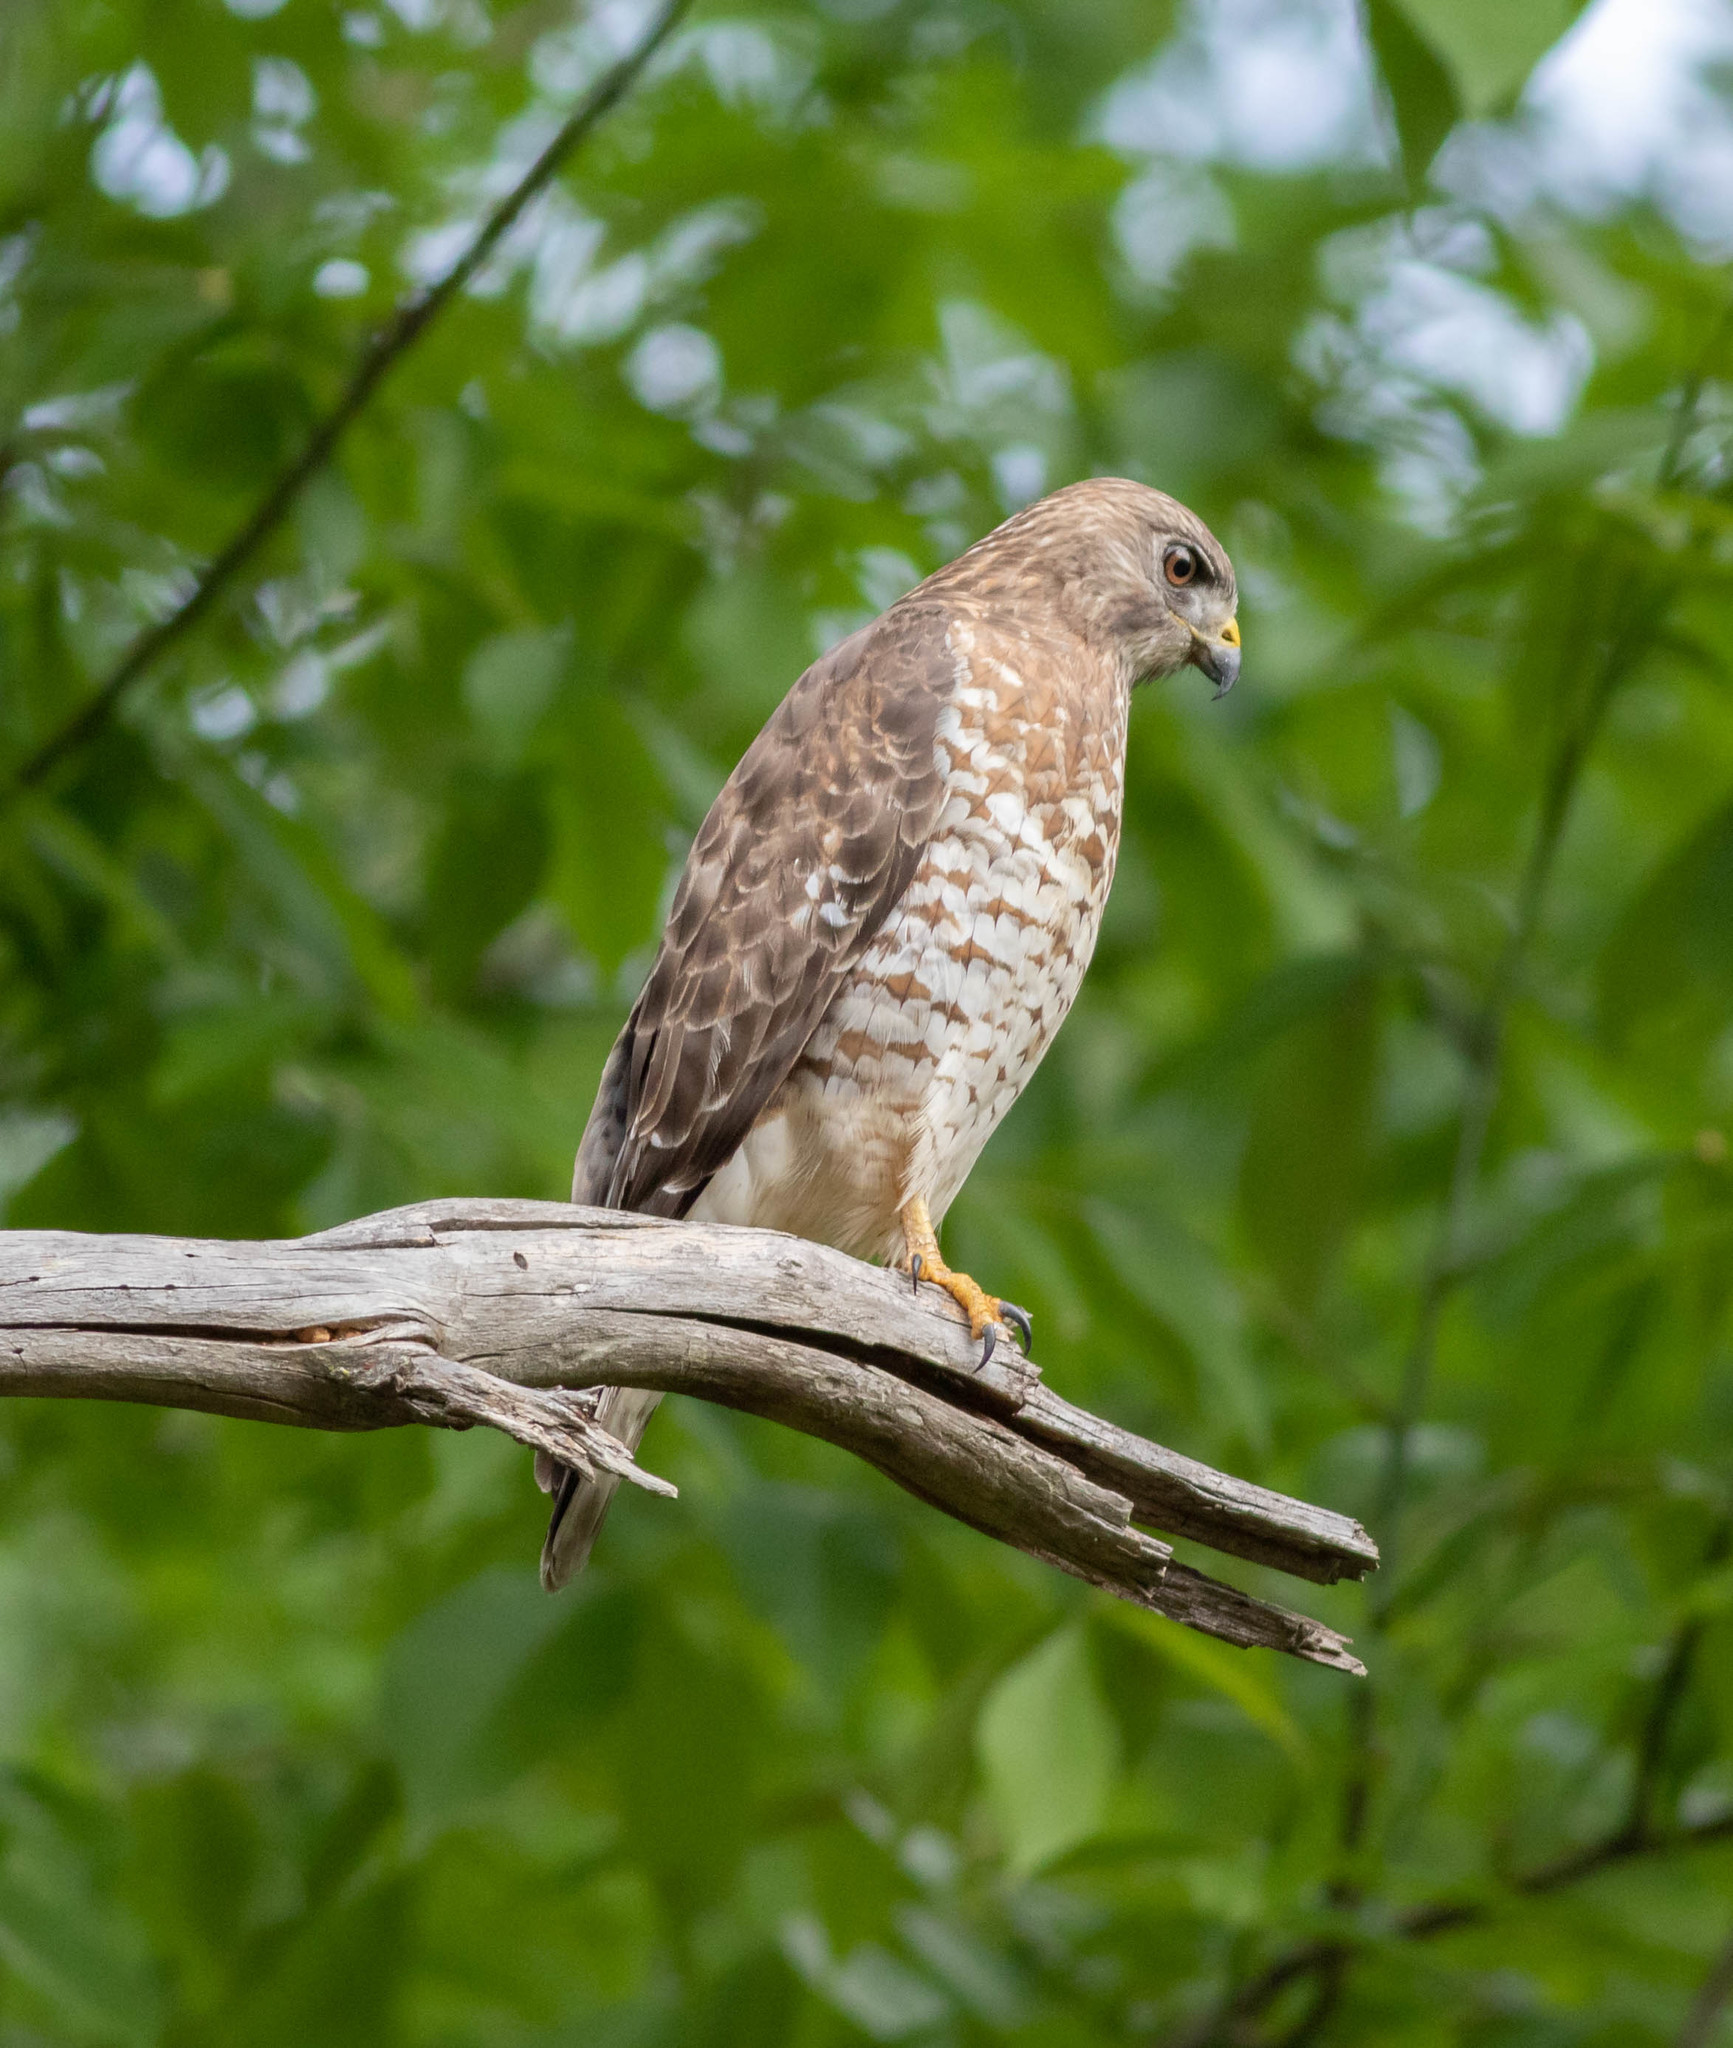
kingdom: Animalia
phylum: Chordata
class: Aves
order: Accipitriformes
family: Accipitridae
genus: Buteo
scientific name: Buteo platypterus
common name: Broad-winged hawk
